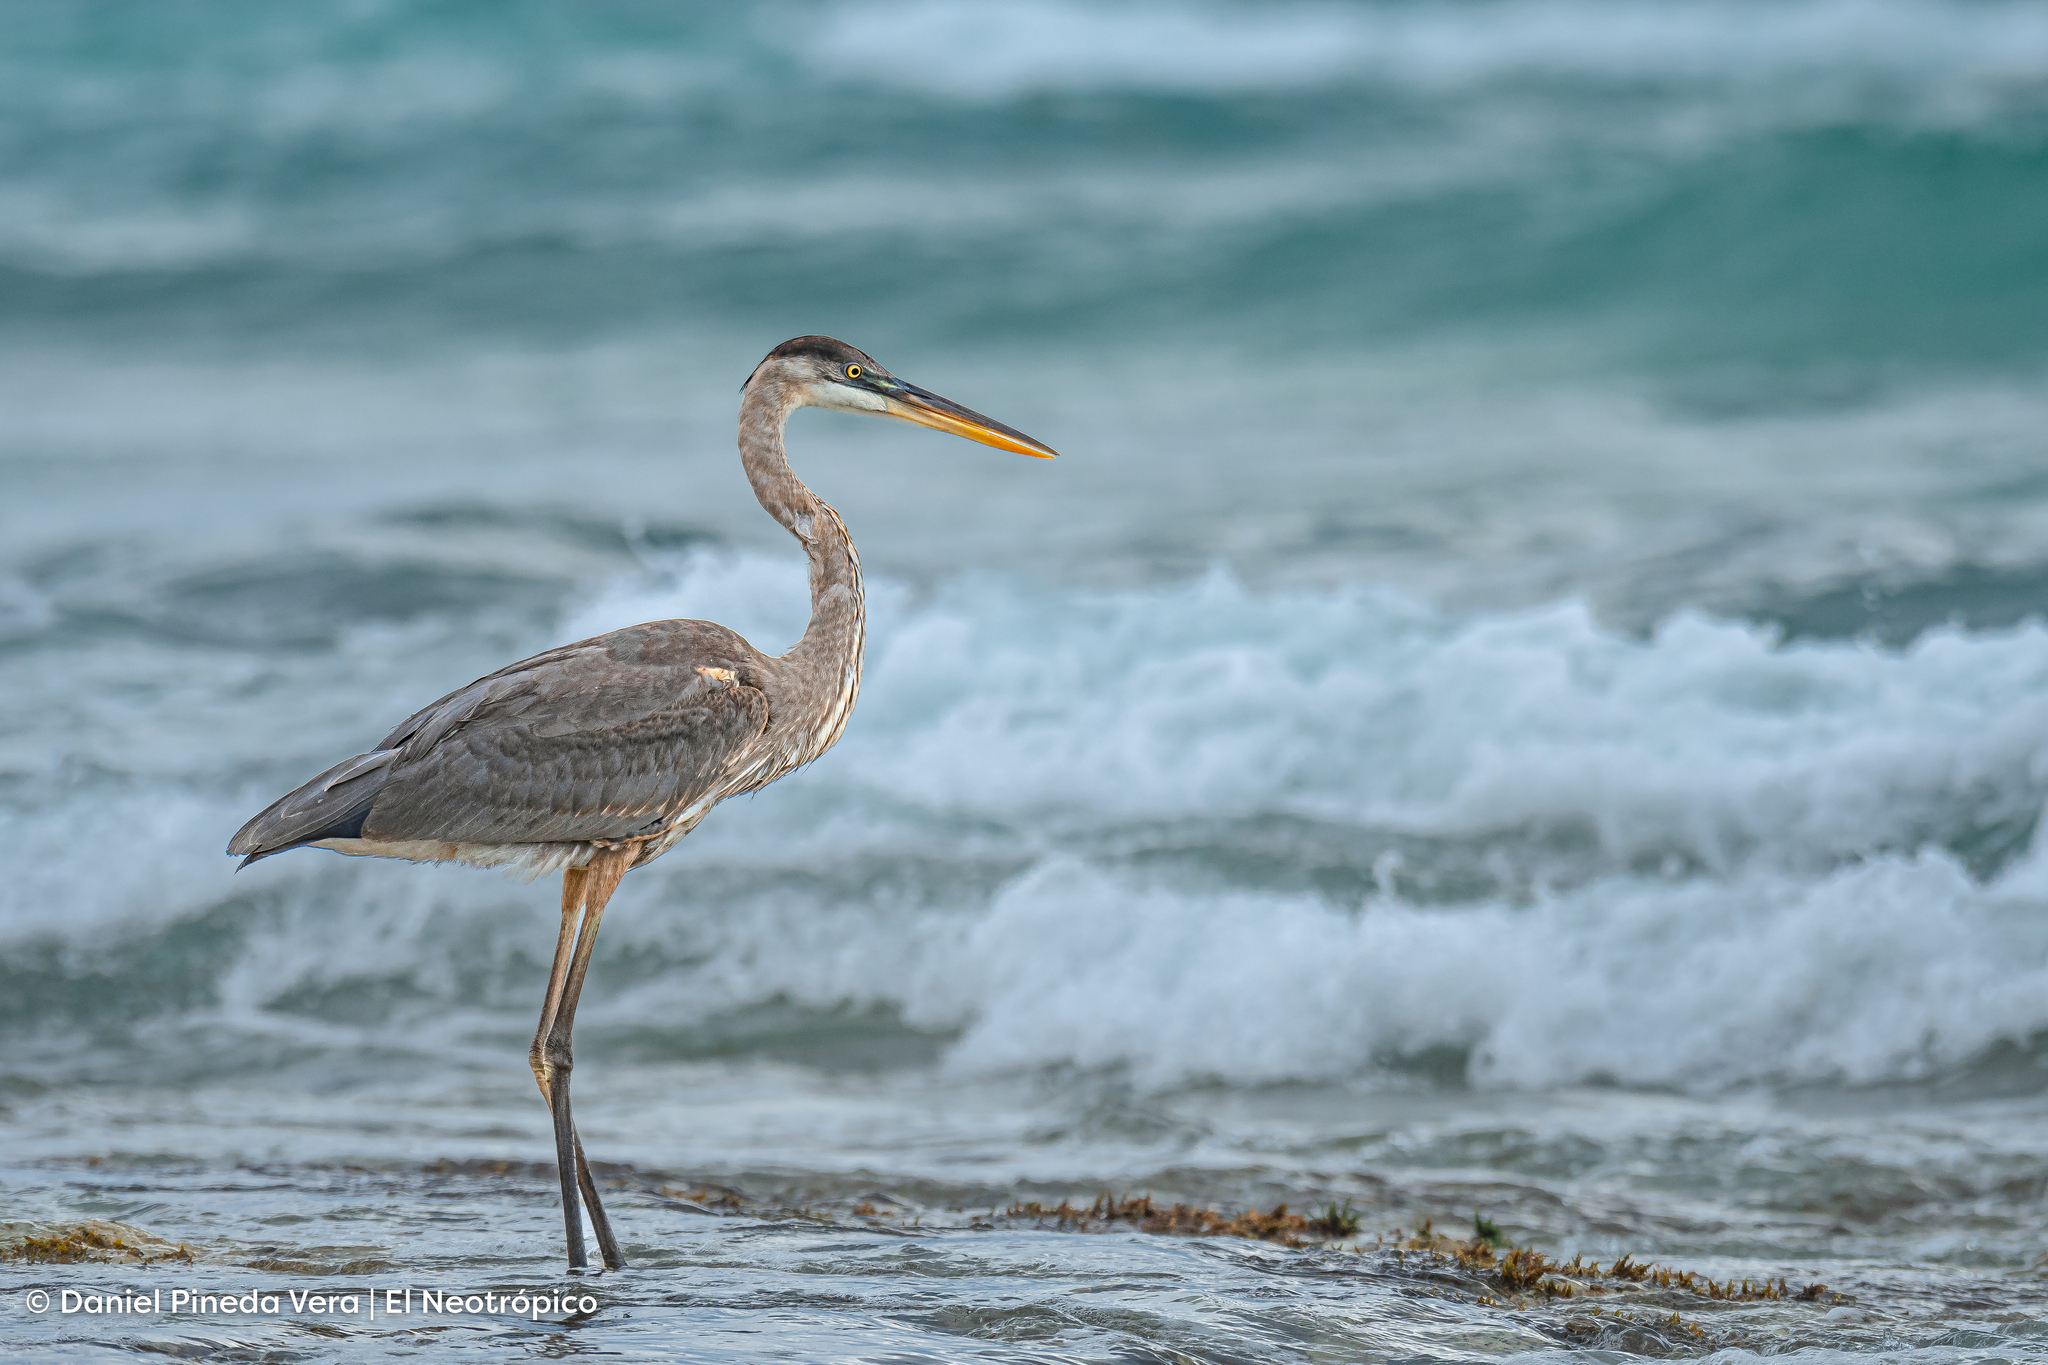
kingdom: Animalia
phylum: Chordata
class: Aves
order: Pelecaniformes
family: Ardeidae
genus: Ardea
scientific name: Ardea herodias
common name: Great blue heron
